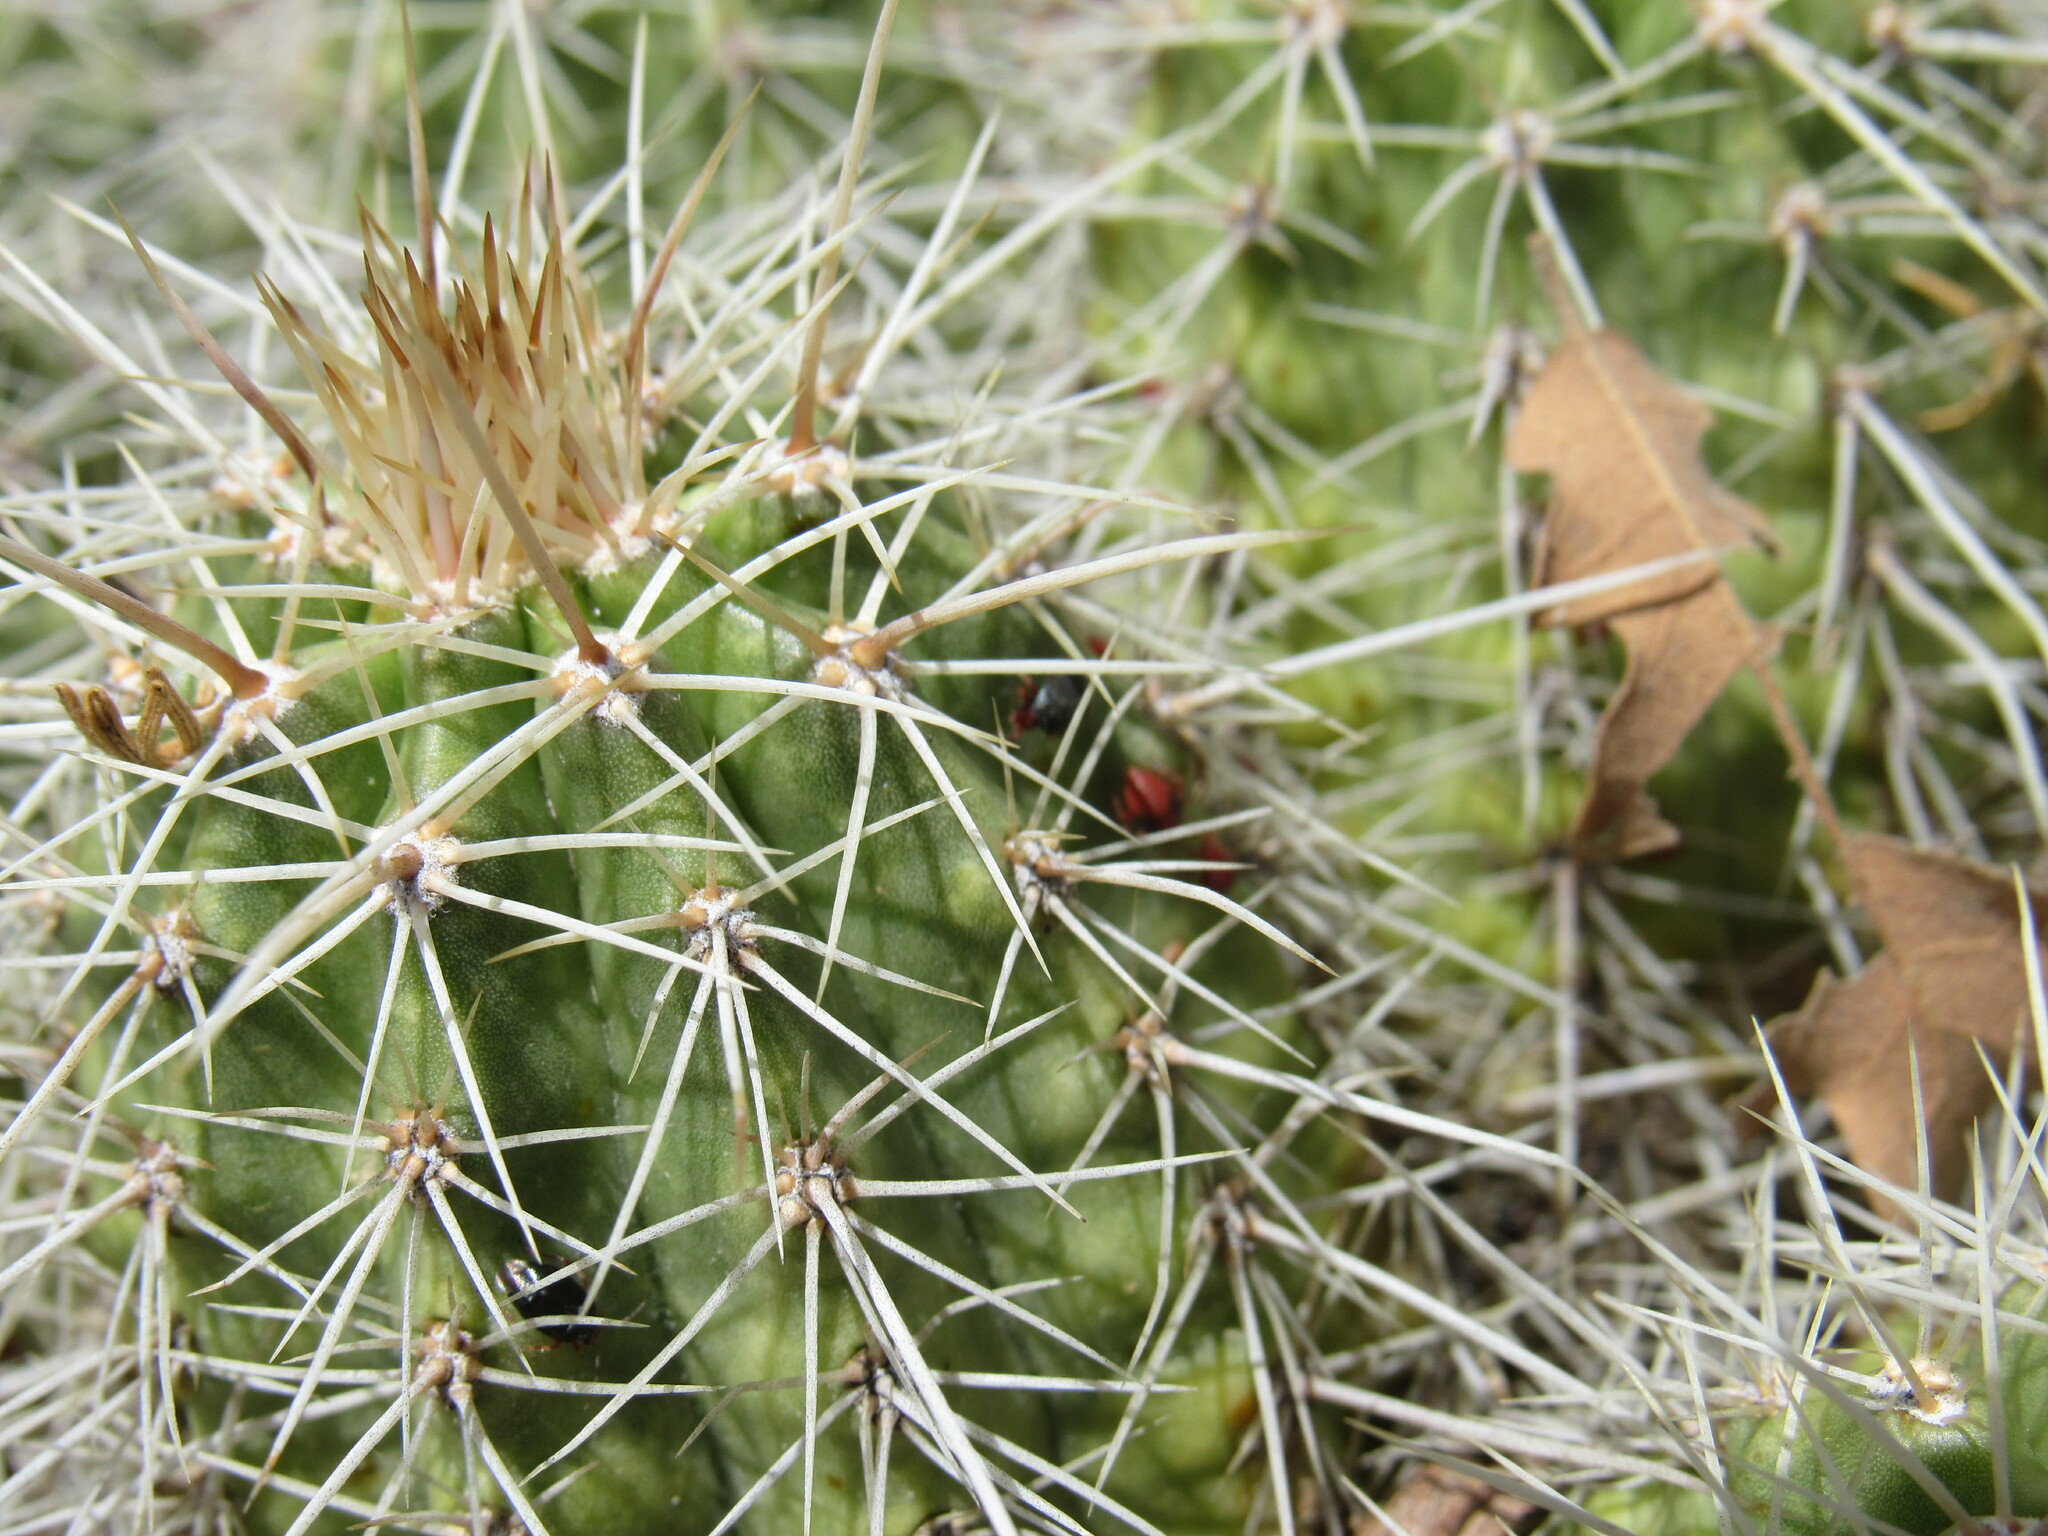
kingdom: Plantae
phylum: Tracheophyta
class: Magnoliopsida
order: Caryophyllales
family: Cactaceae
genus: Echinocereus
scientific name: Echinocereus coccineus
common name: Scarlet hedgehog cactus
